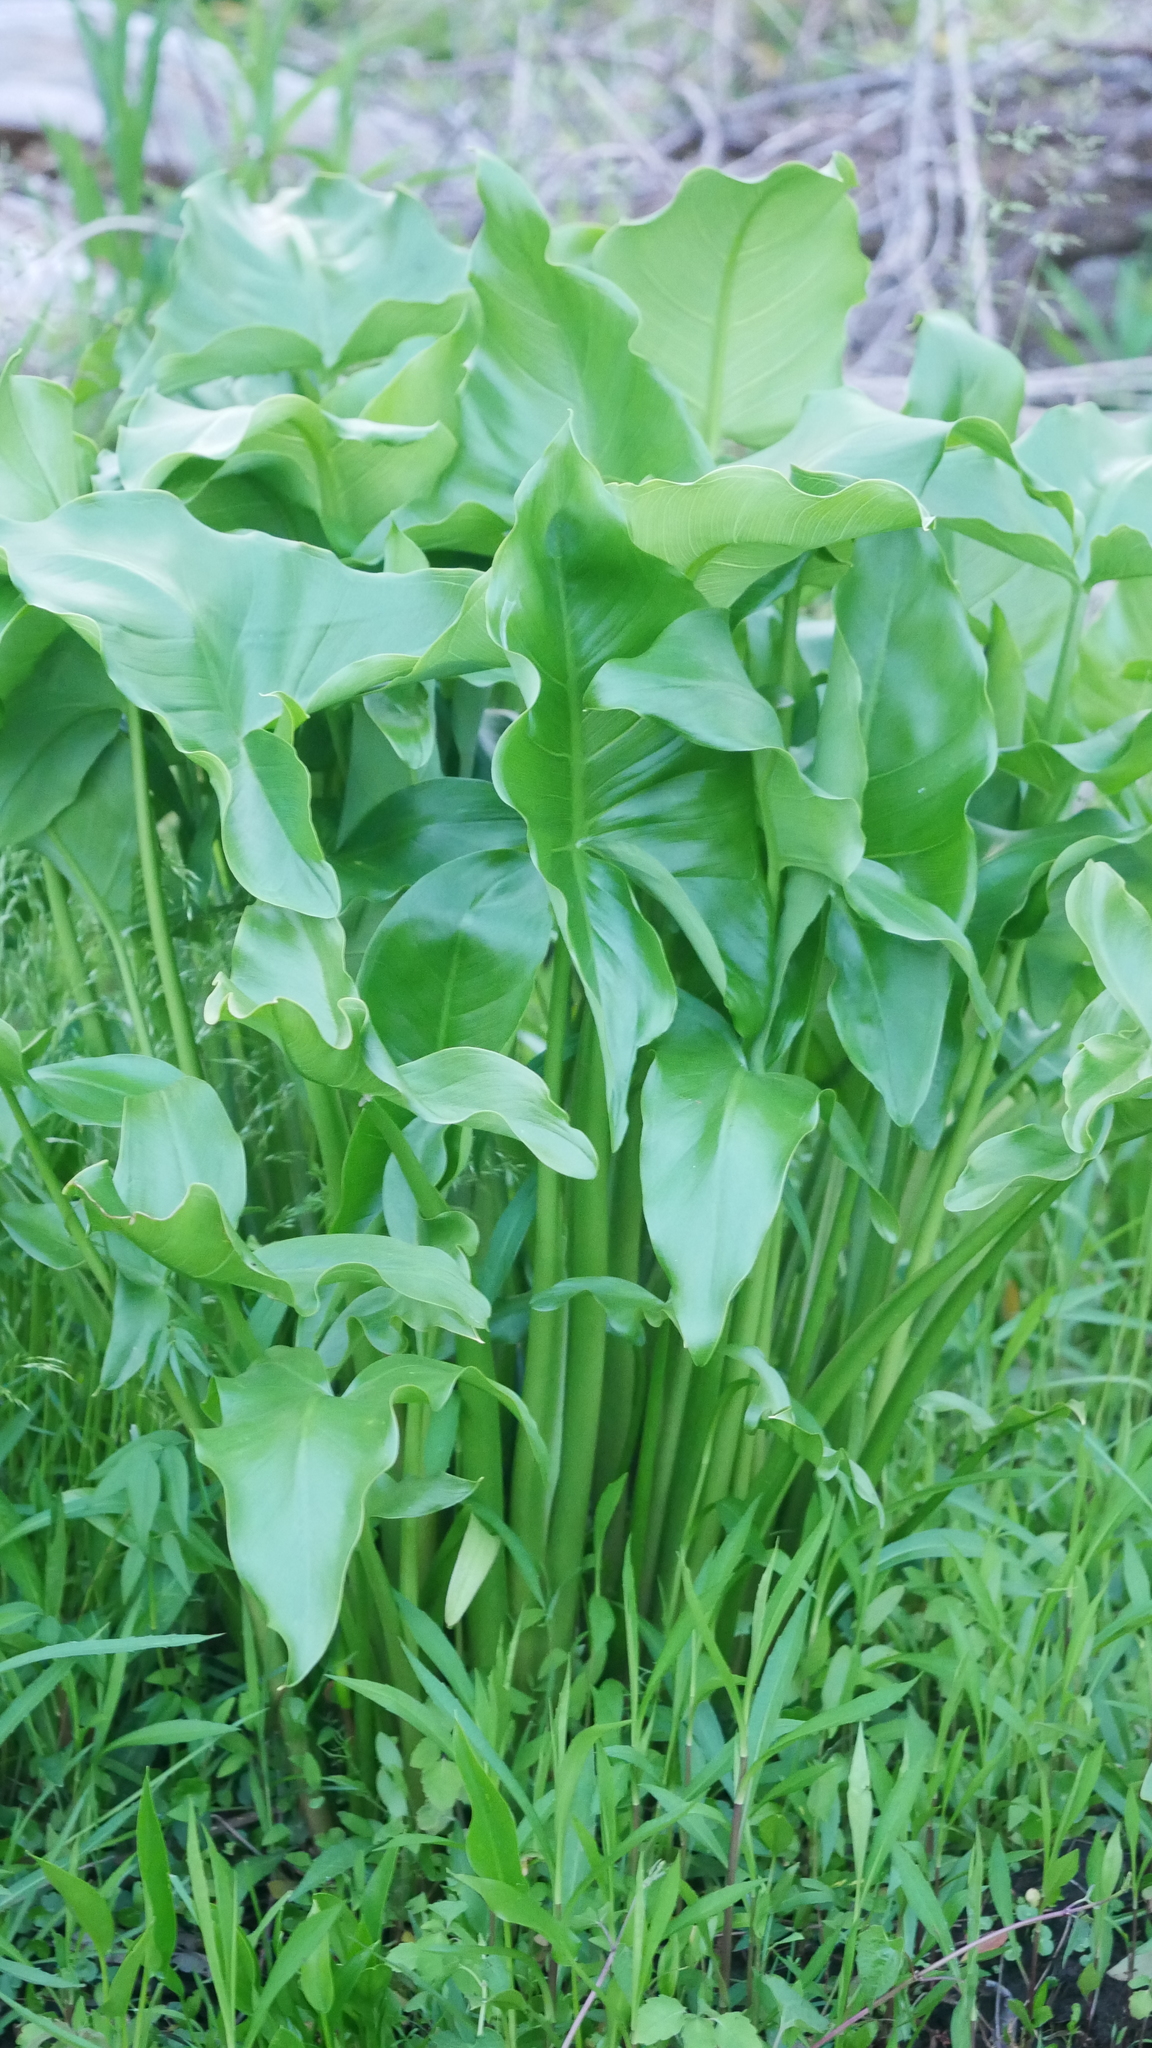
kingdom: Plantae
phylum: Tracheophyta
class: Liliopsida
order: Alismatales
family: Araceae
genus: Peltandra
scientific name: Peltandra virginica
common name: Arrow arum
